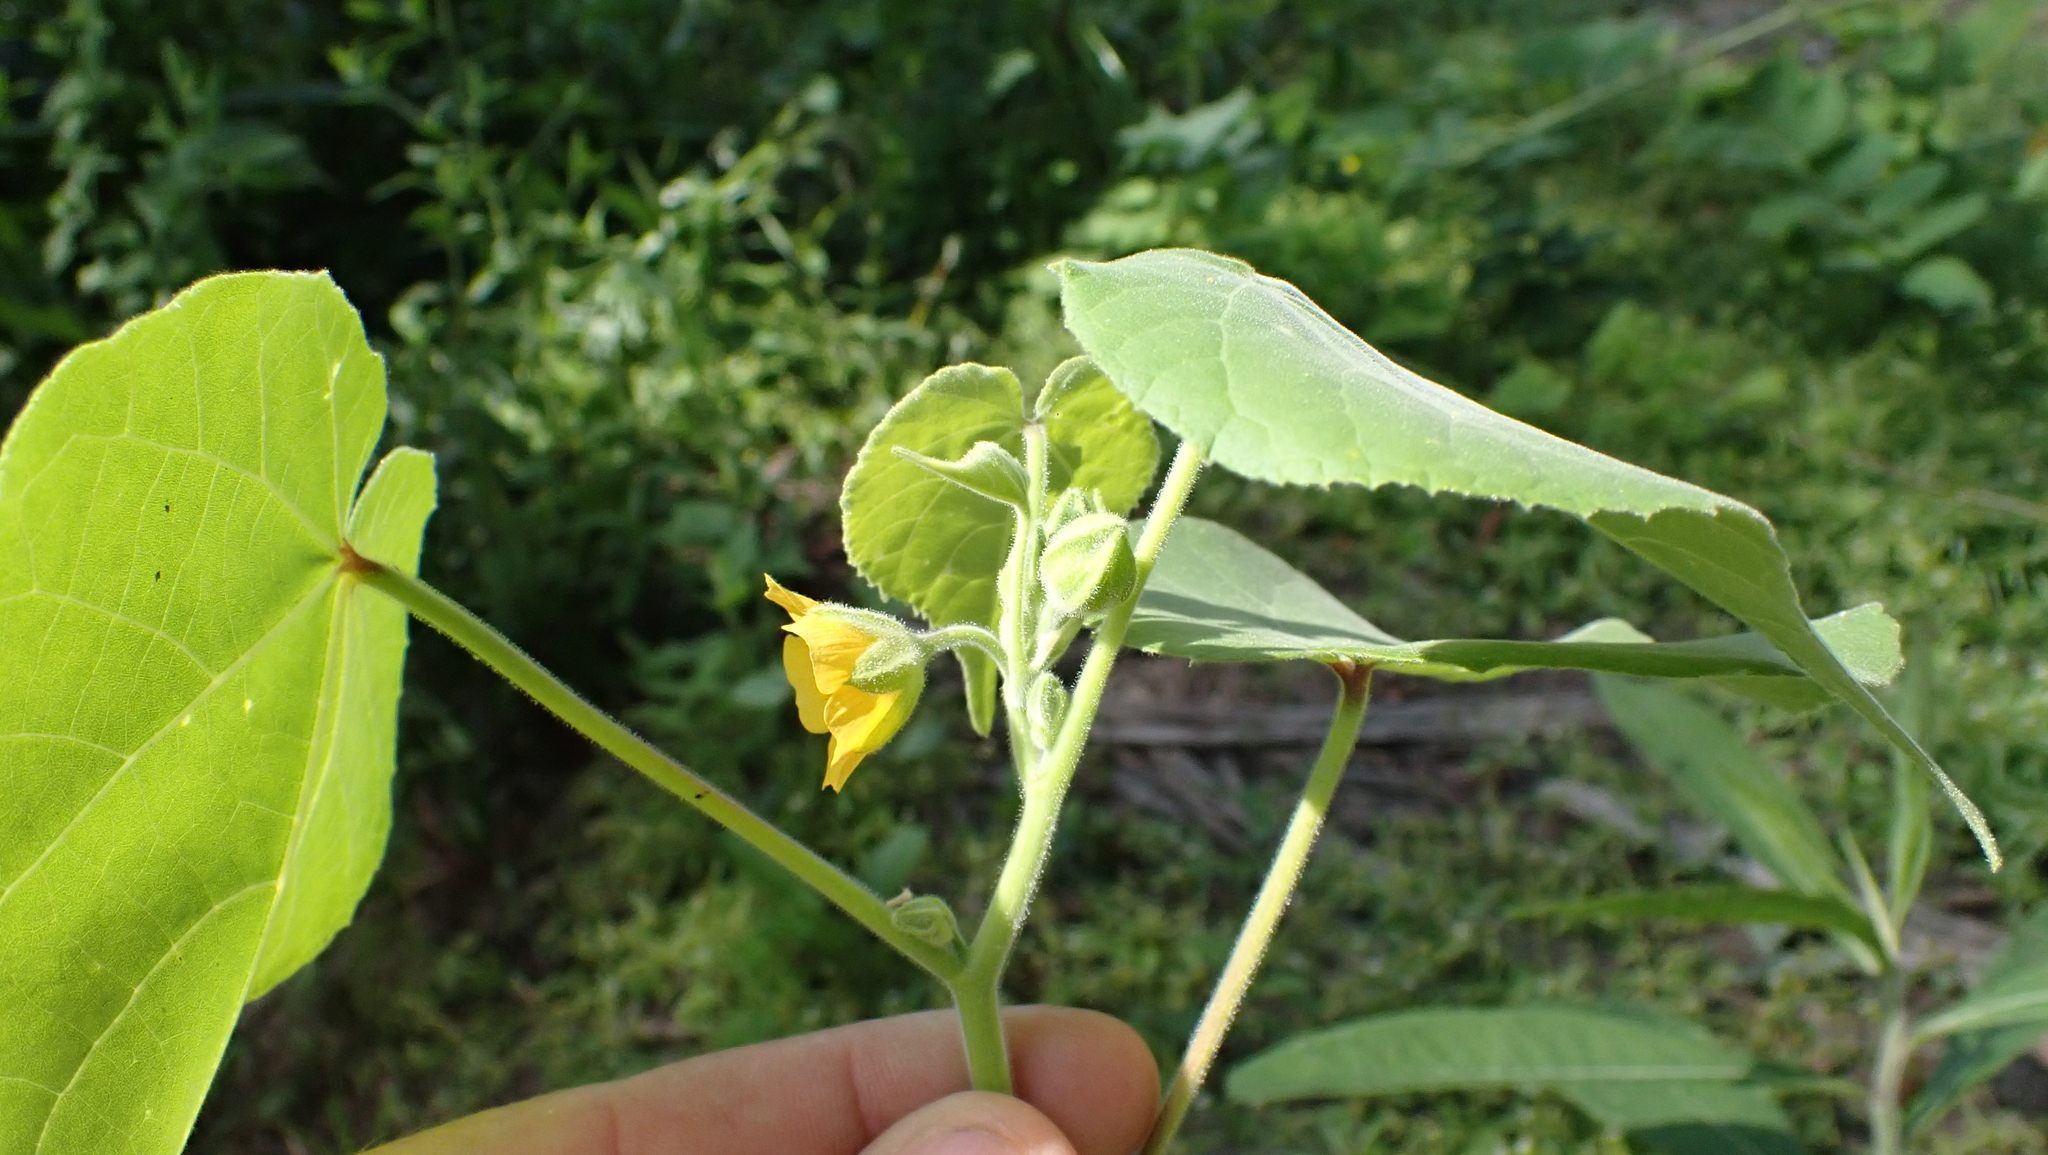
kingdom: Plantae
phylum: Tracheophyta
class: Magnoliopsida
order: Malvales
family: Malvaceae
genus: Abutilon
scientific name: Abutilon theophrasti
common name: Velvetleaf
